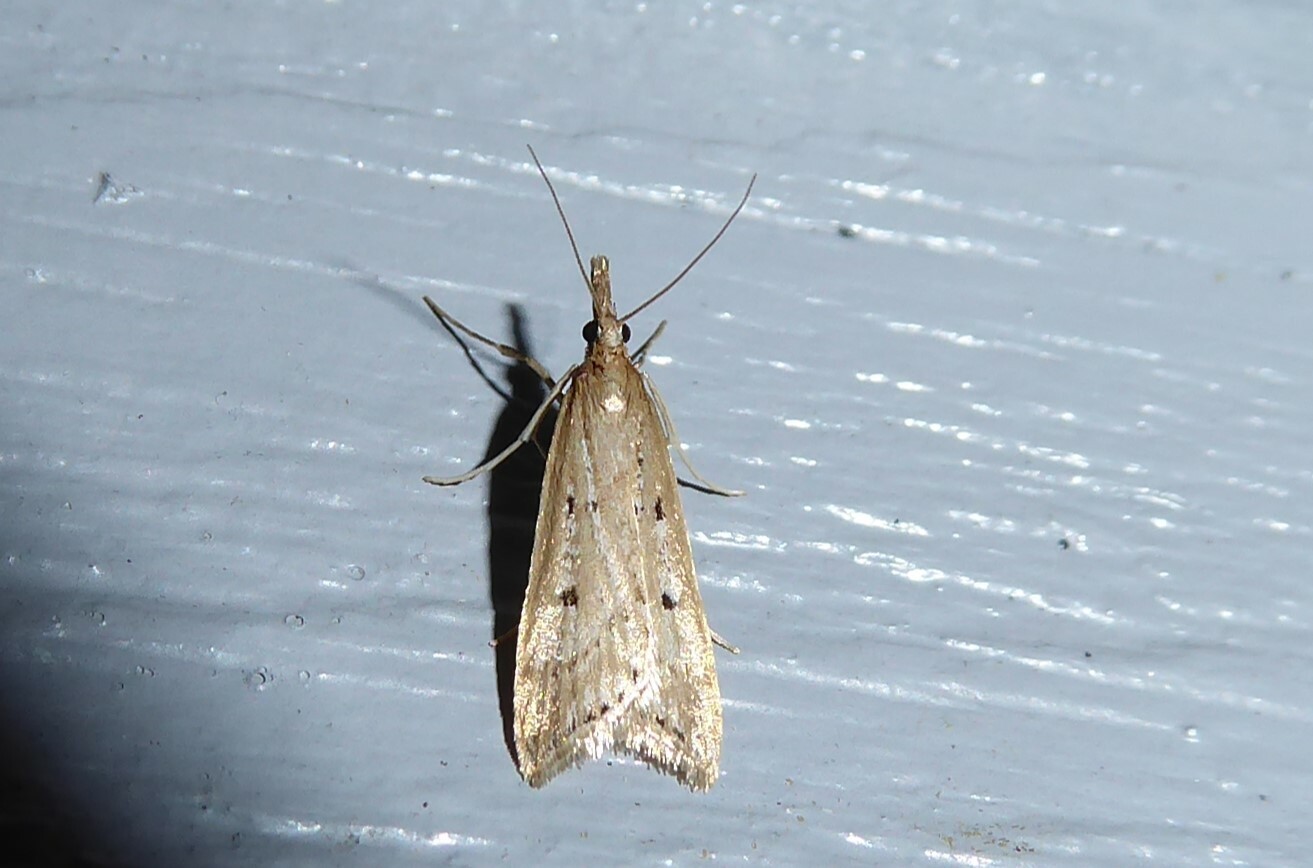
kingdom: Animalia
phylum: Arthropoda
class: Insecta
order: Lepidoptera
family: Crambidae
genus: Antiscopa
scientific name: Antiscopa elaphra
